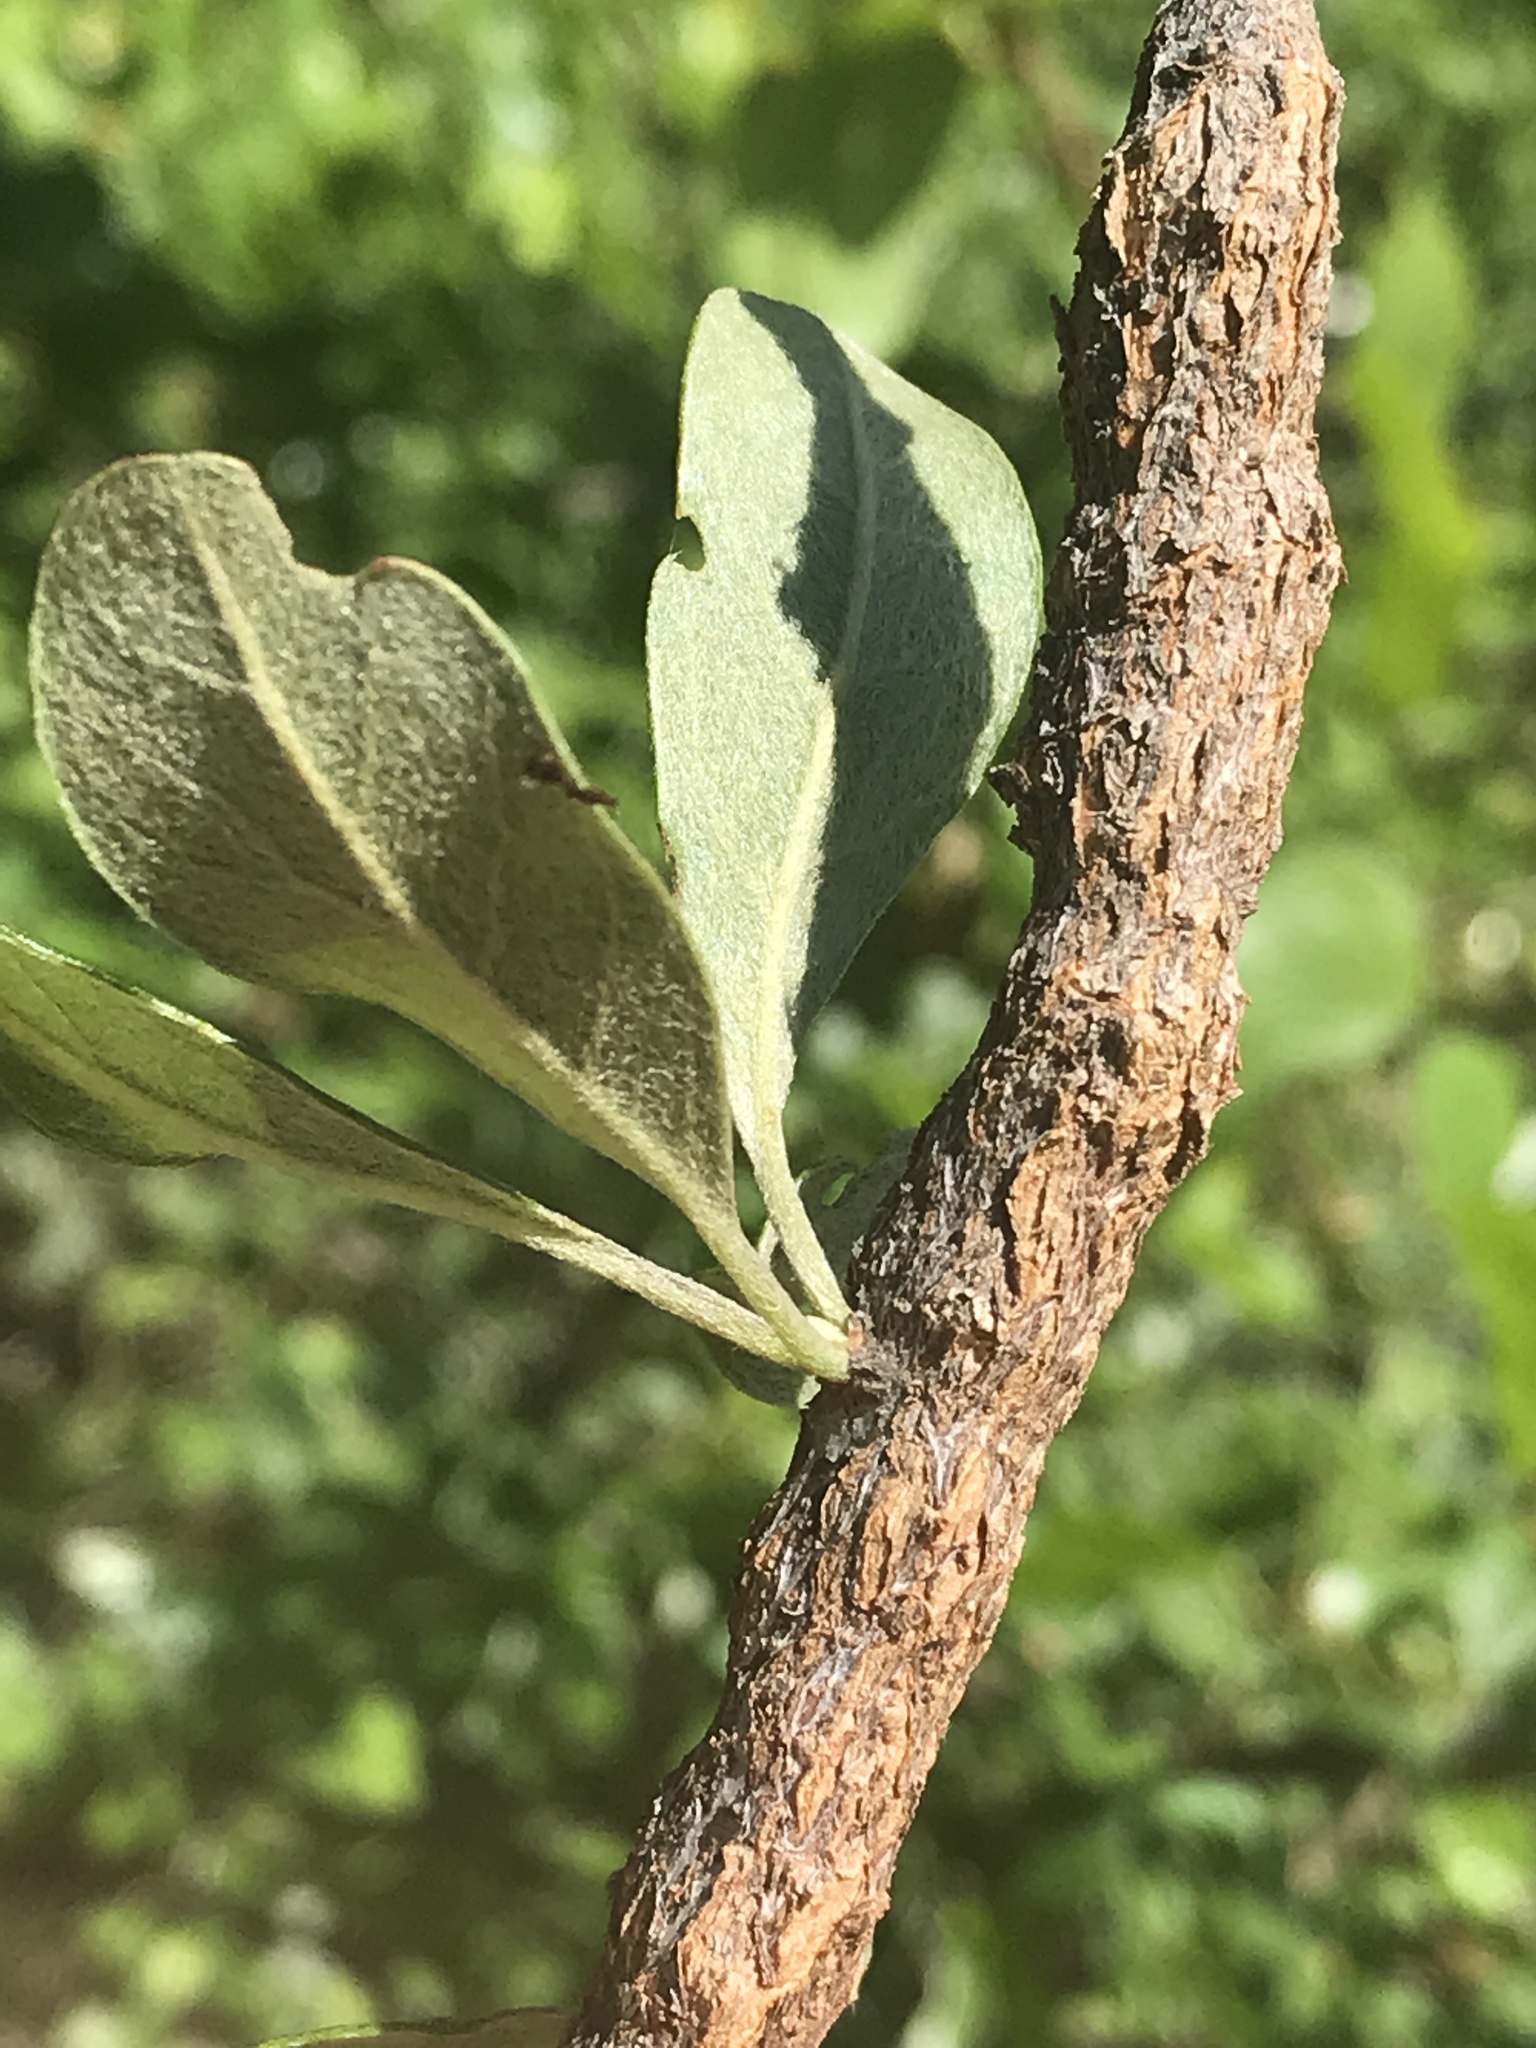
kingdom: Animalia
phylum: Arthropoda
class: Insecta
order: Diptera
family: Cecidomyiidae
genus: Bruggmanniella
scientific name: Bruggmanniella bumeliae
